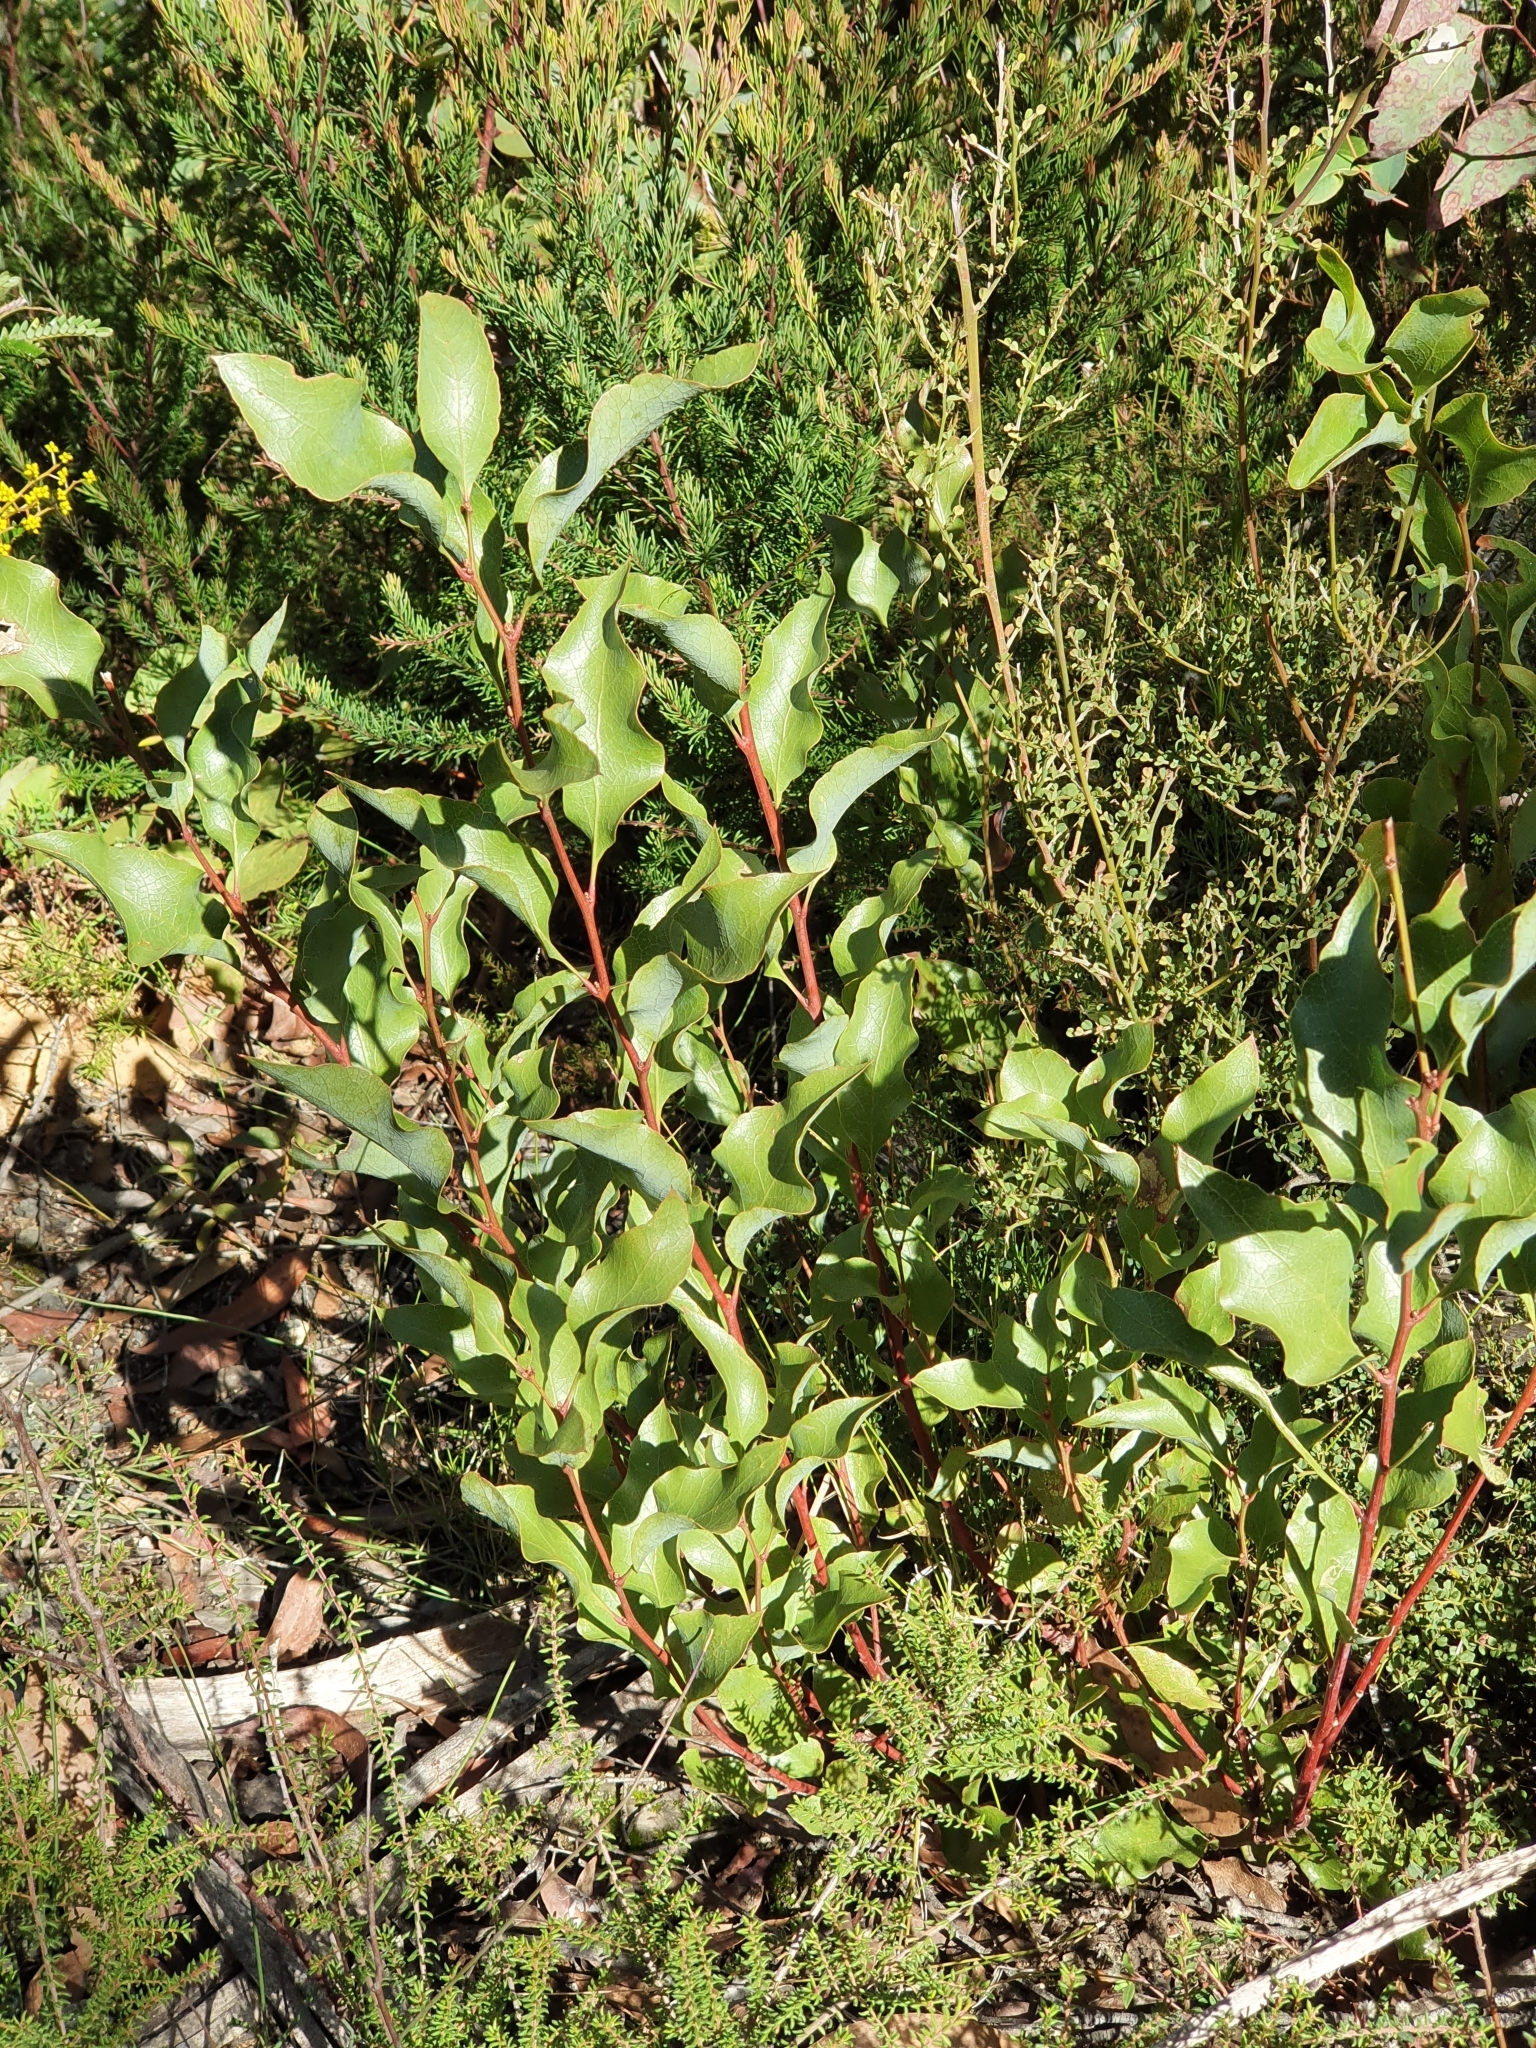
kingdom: Plantae
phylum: Tracheophyta
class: Magnoliopsida
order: Fabales
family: Fabaceae
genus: Daviesia
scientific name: Daviesia latifolia
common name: Hop bitter-pea
